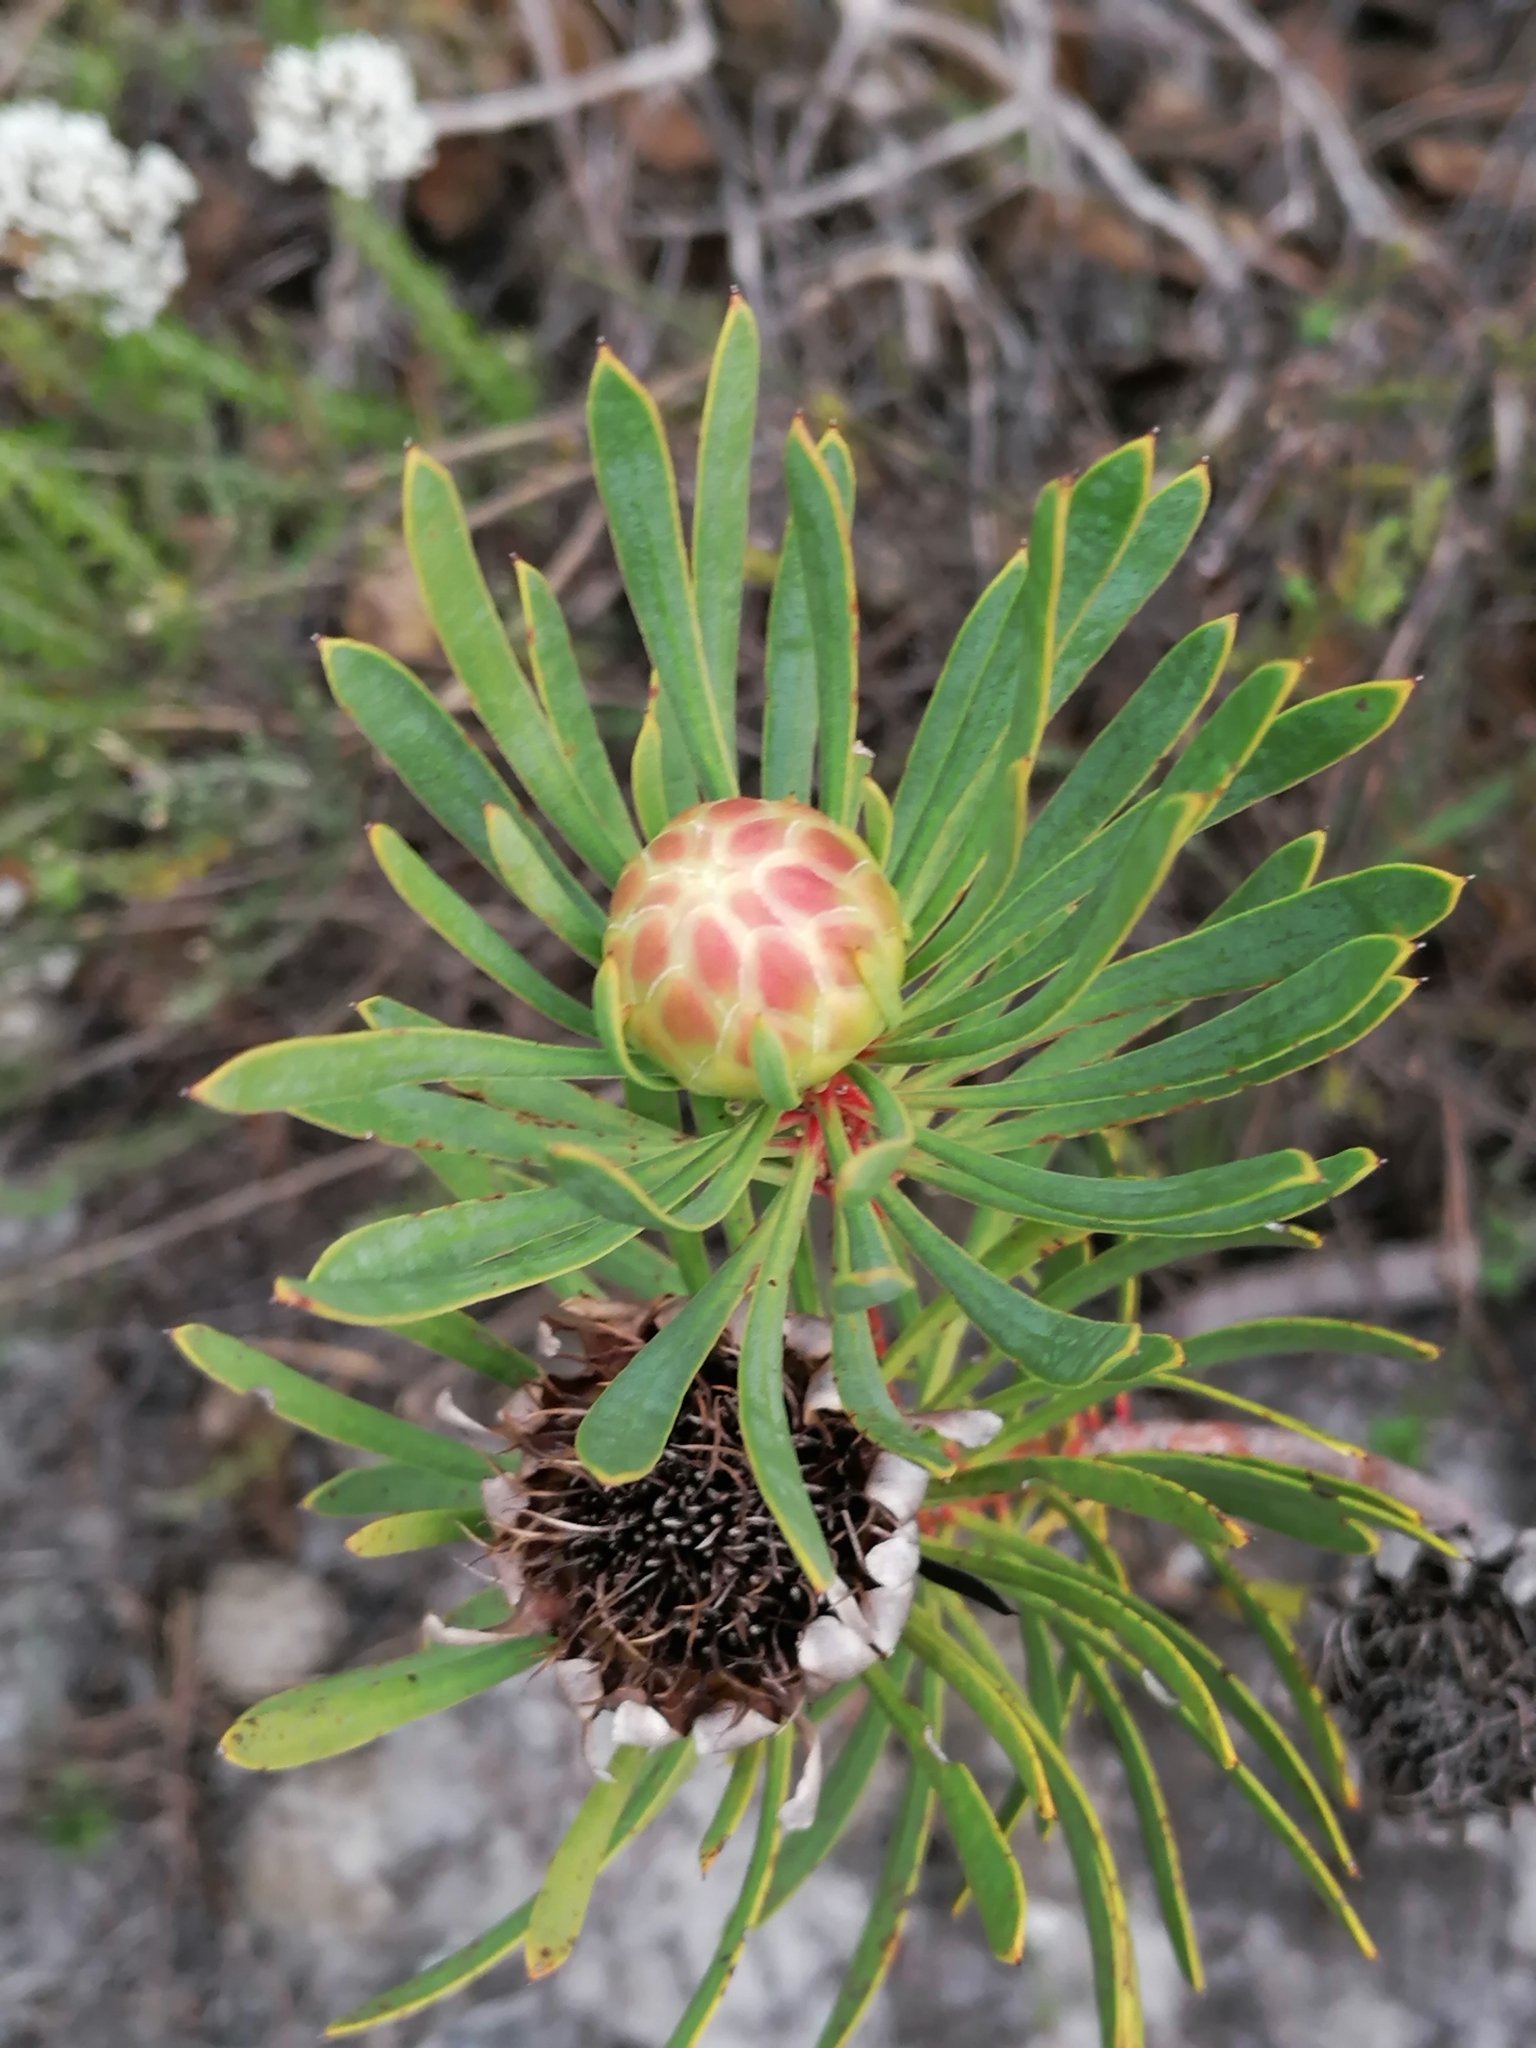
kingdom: Plantae
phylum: Tracheophyta
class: Magnoliopsida
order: Proteales
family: Proteaceae
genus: Protea
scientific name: Protea scolymocephala
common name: Thistle sugarbush
